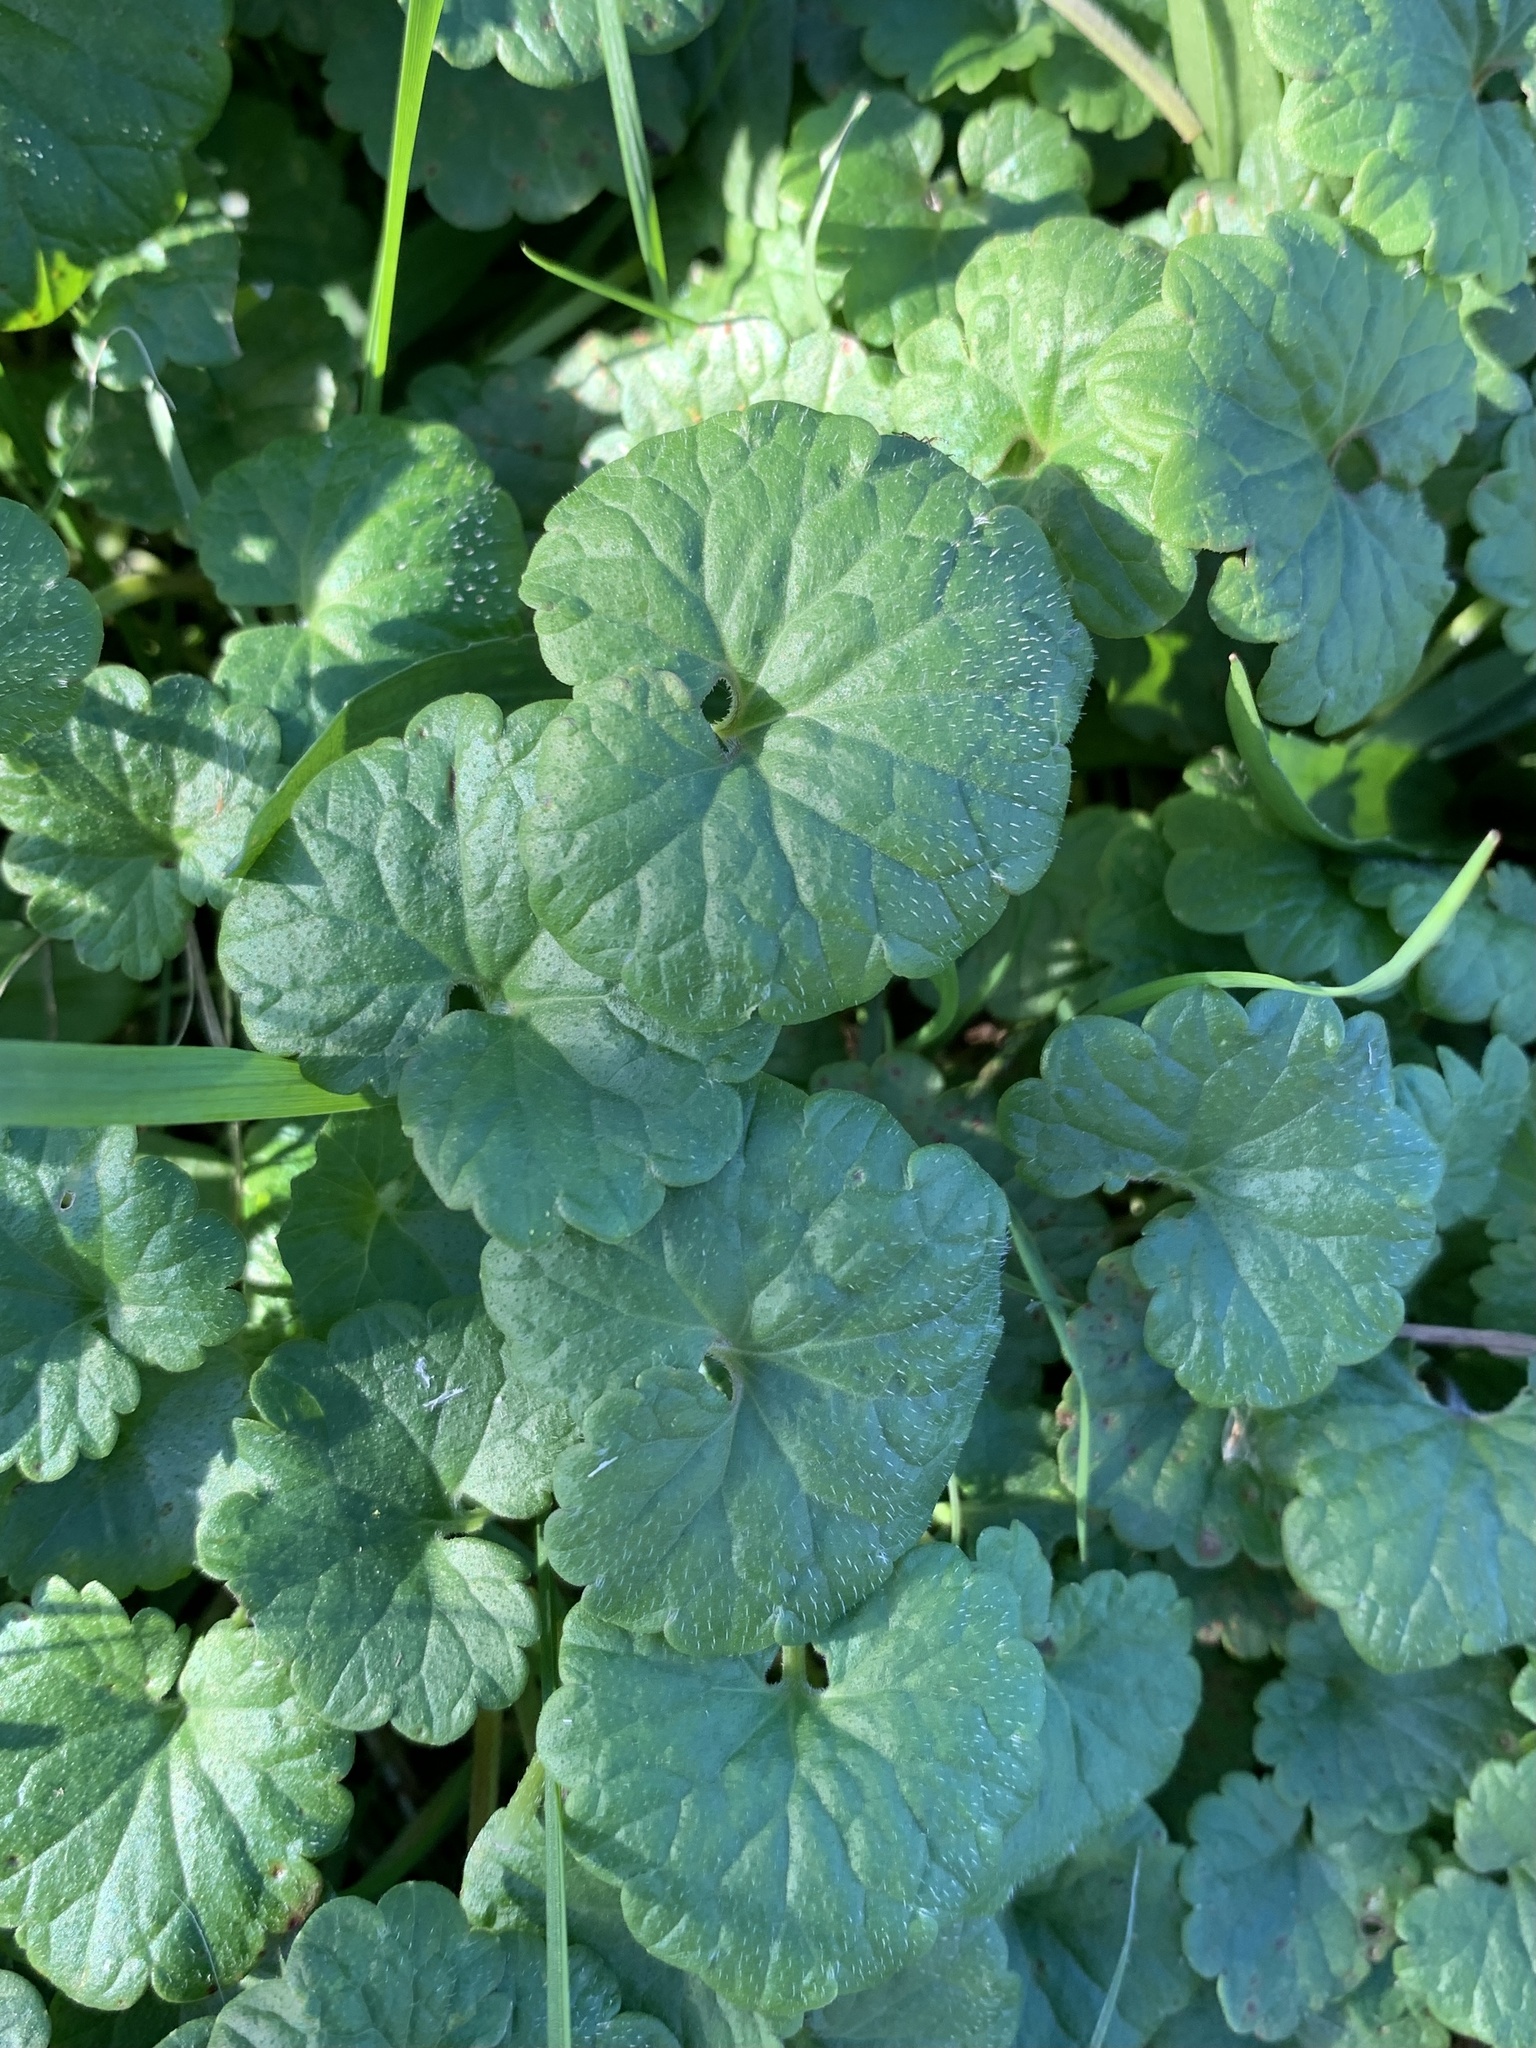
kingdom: Plantae
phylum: Tracheophyta
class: Magnoliopsida
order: Lamiales
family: Lamiaceae
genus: Glechoma
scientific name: Glechoma hederacea
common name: Ground ivy
